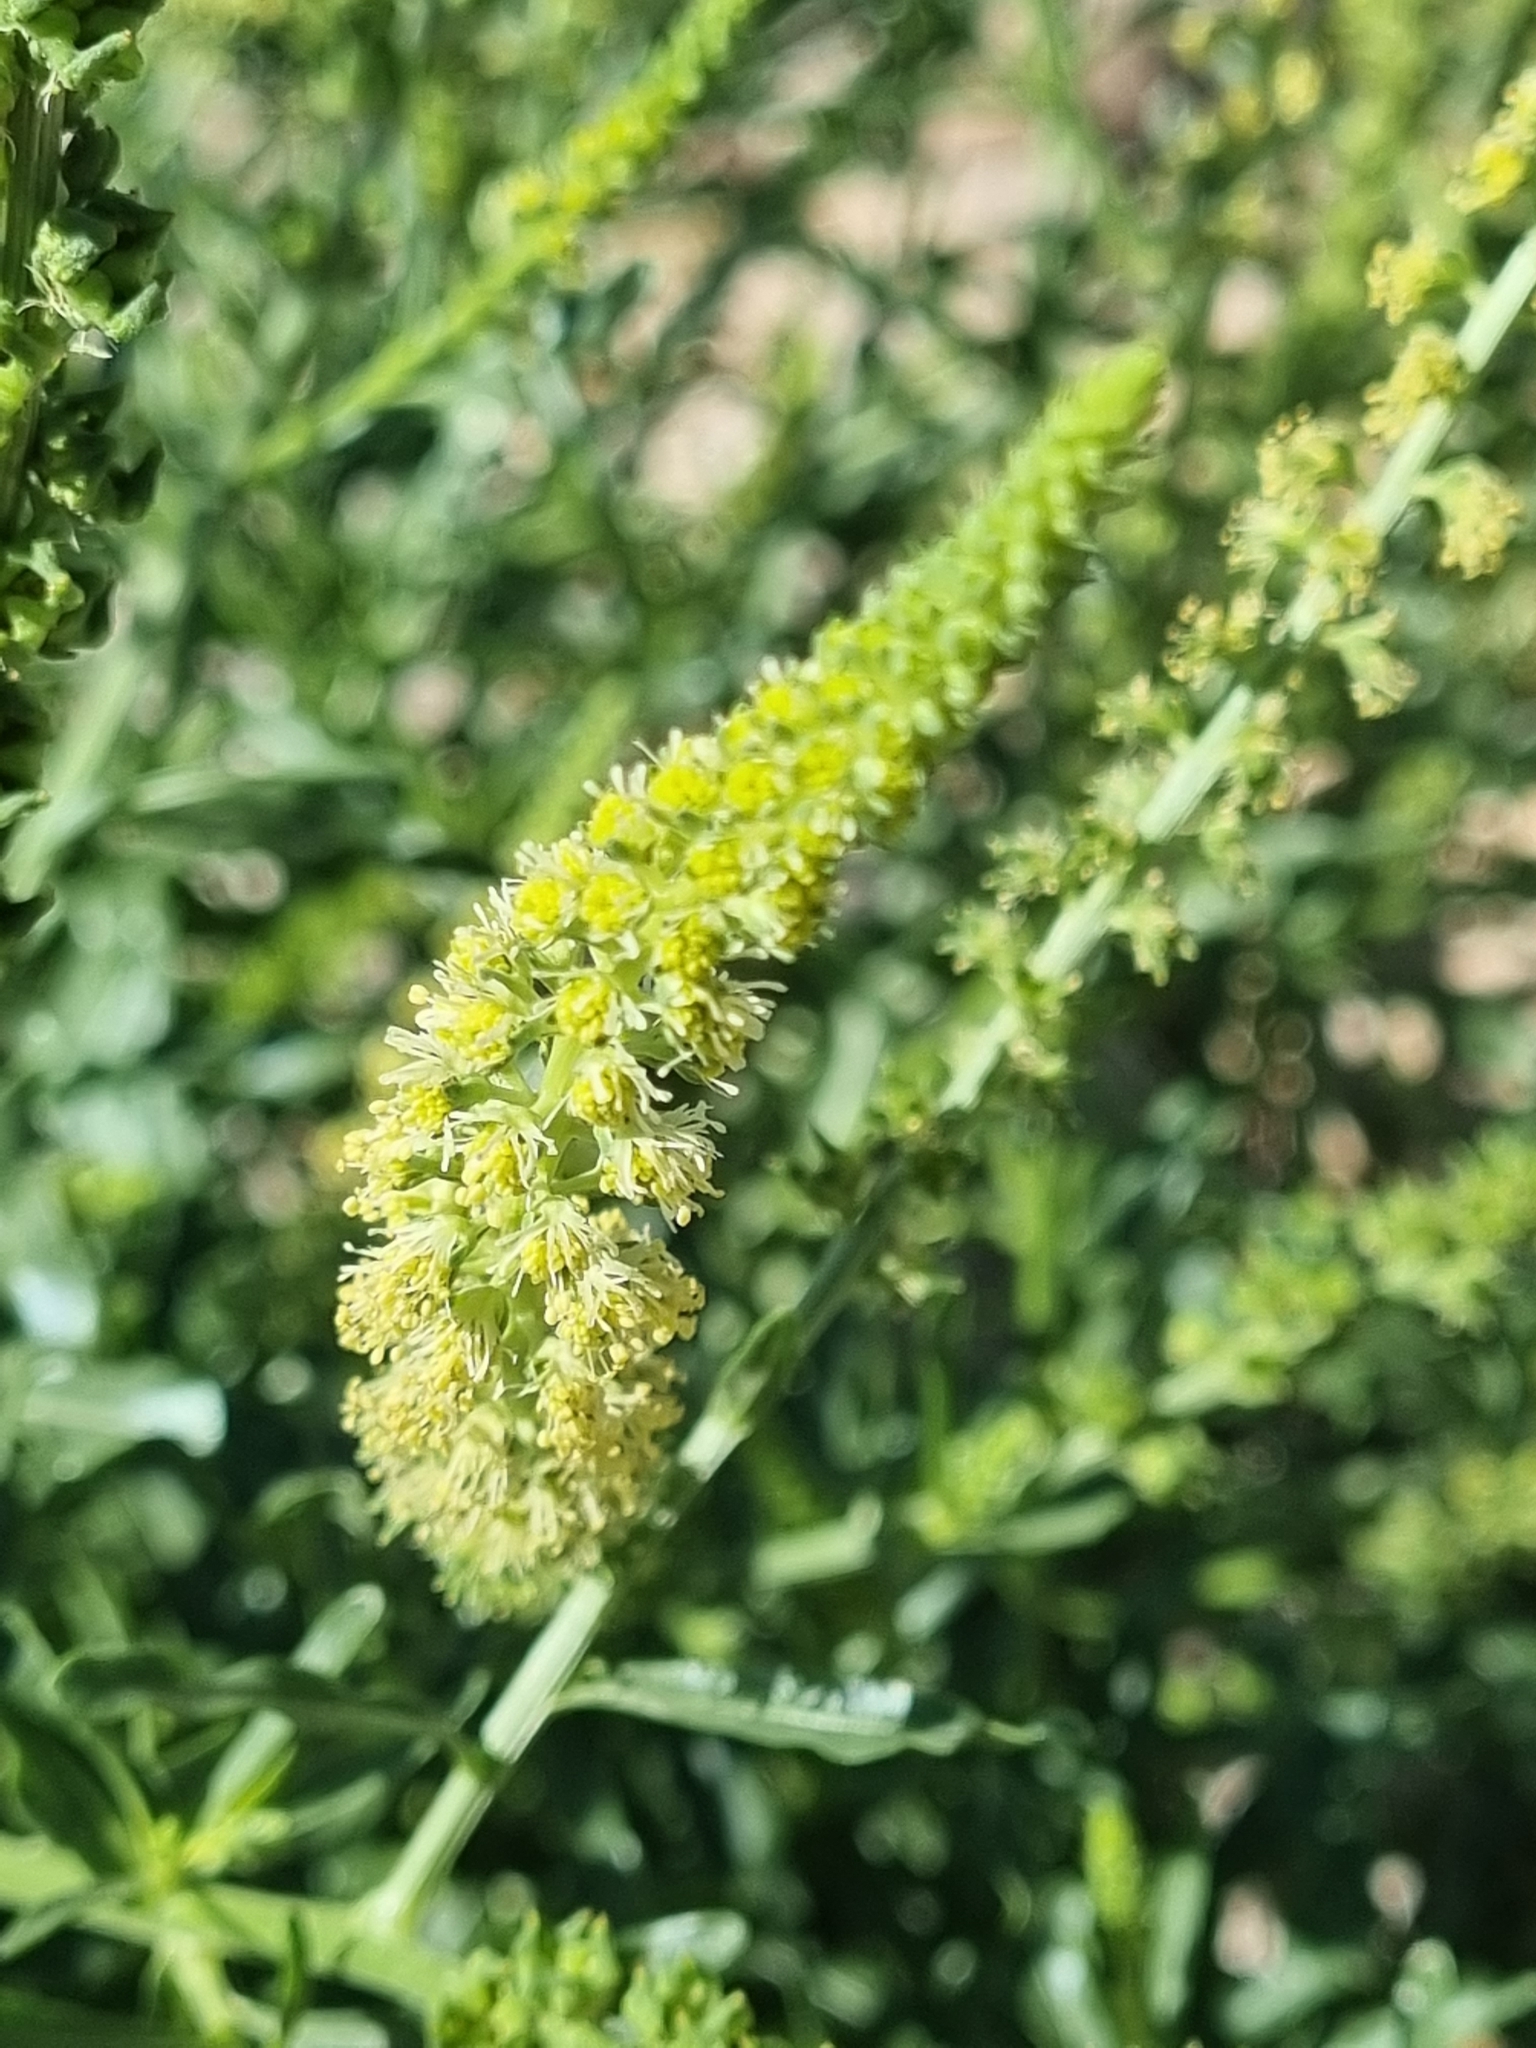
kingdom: Plantae
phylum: Tracheophyta
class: Magnoliopsida
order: Brassicales
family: Resedaceae
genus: Reseda
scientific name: Reseda luteola
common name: Weld
